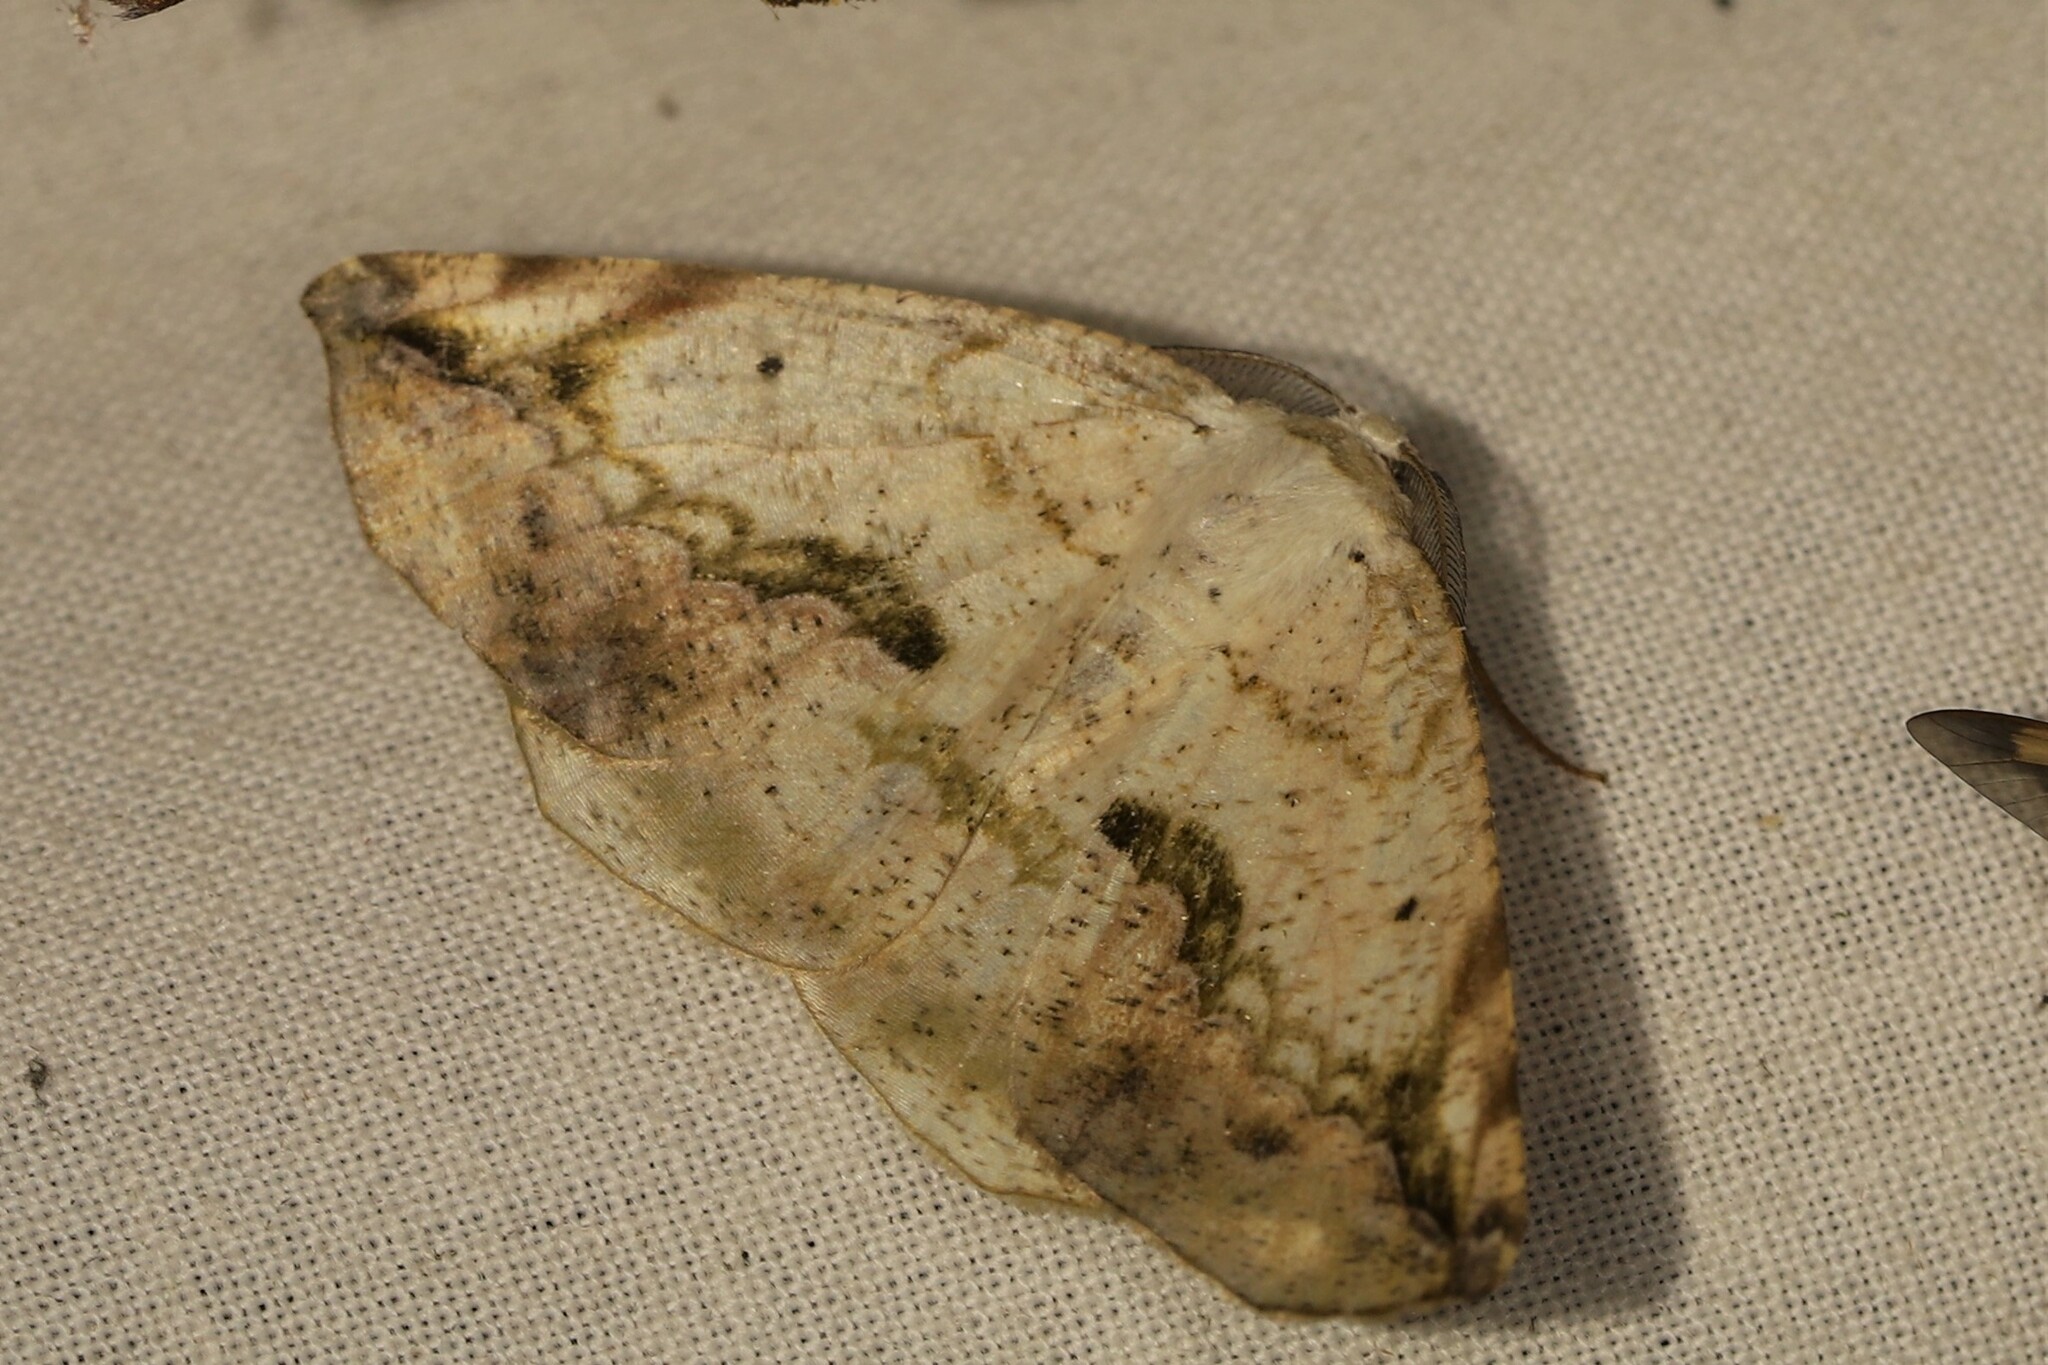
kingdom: Animalia
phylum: Arthropoda
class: Insecta
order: Lepidoptera
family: Geometridae
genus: Eusarca
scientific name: Eusarca nemora
